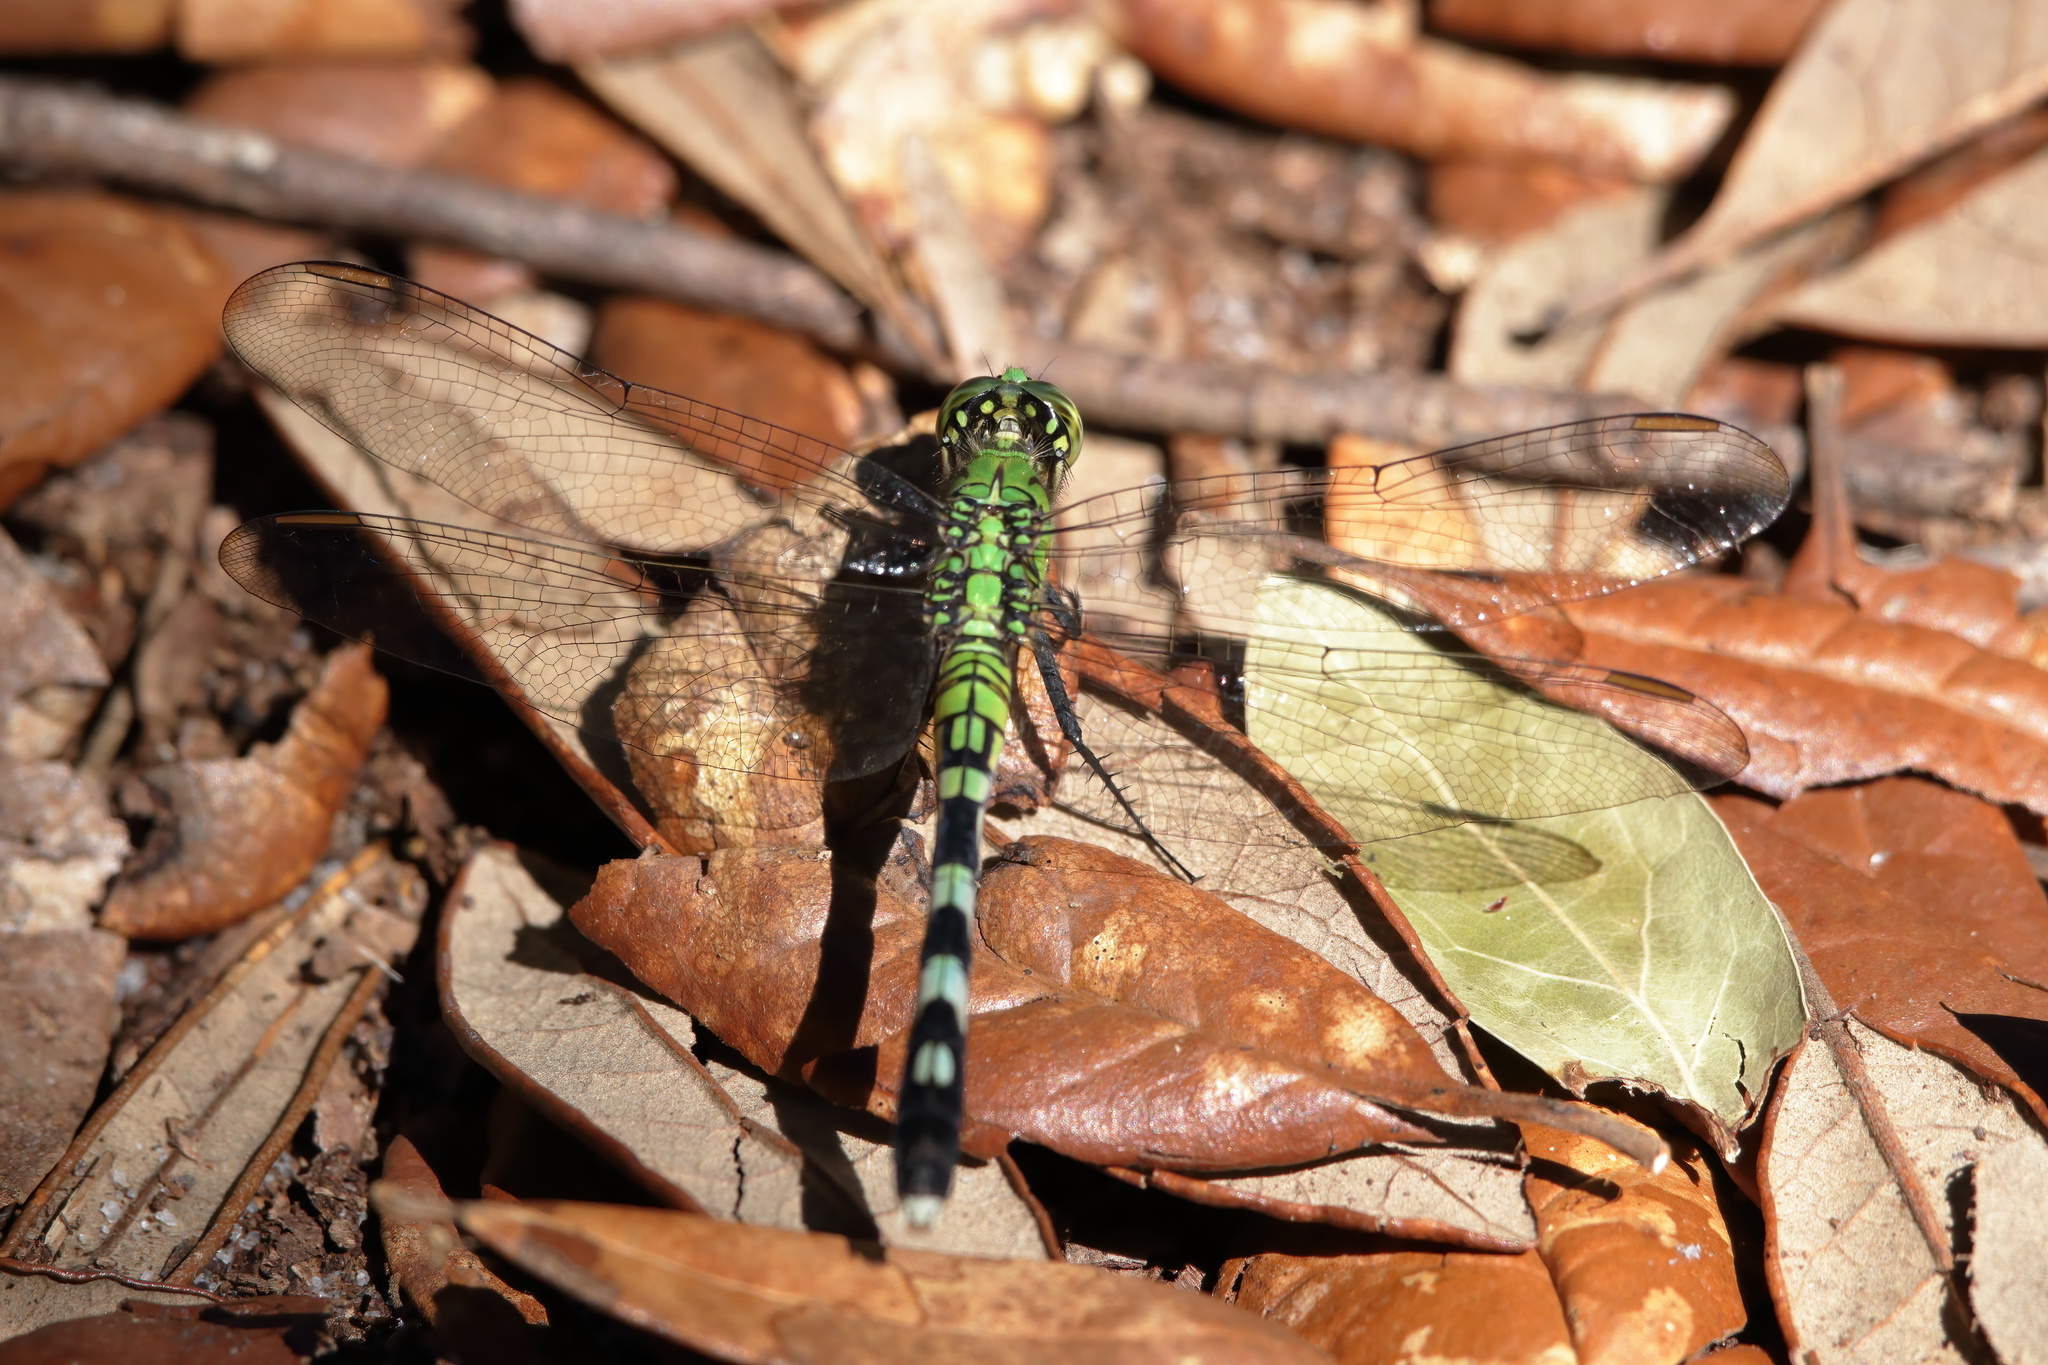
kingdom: Animalia
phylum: Arthropoda
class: Insecta
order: Odonata
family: Libellulidae
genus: Erythemis
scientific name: Erythemis simplicicollis
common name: Eastern pondhawk
